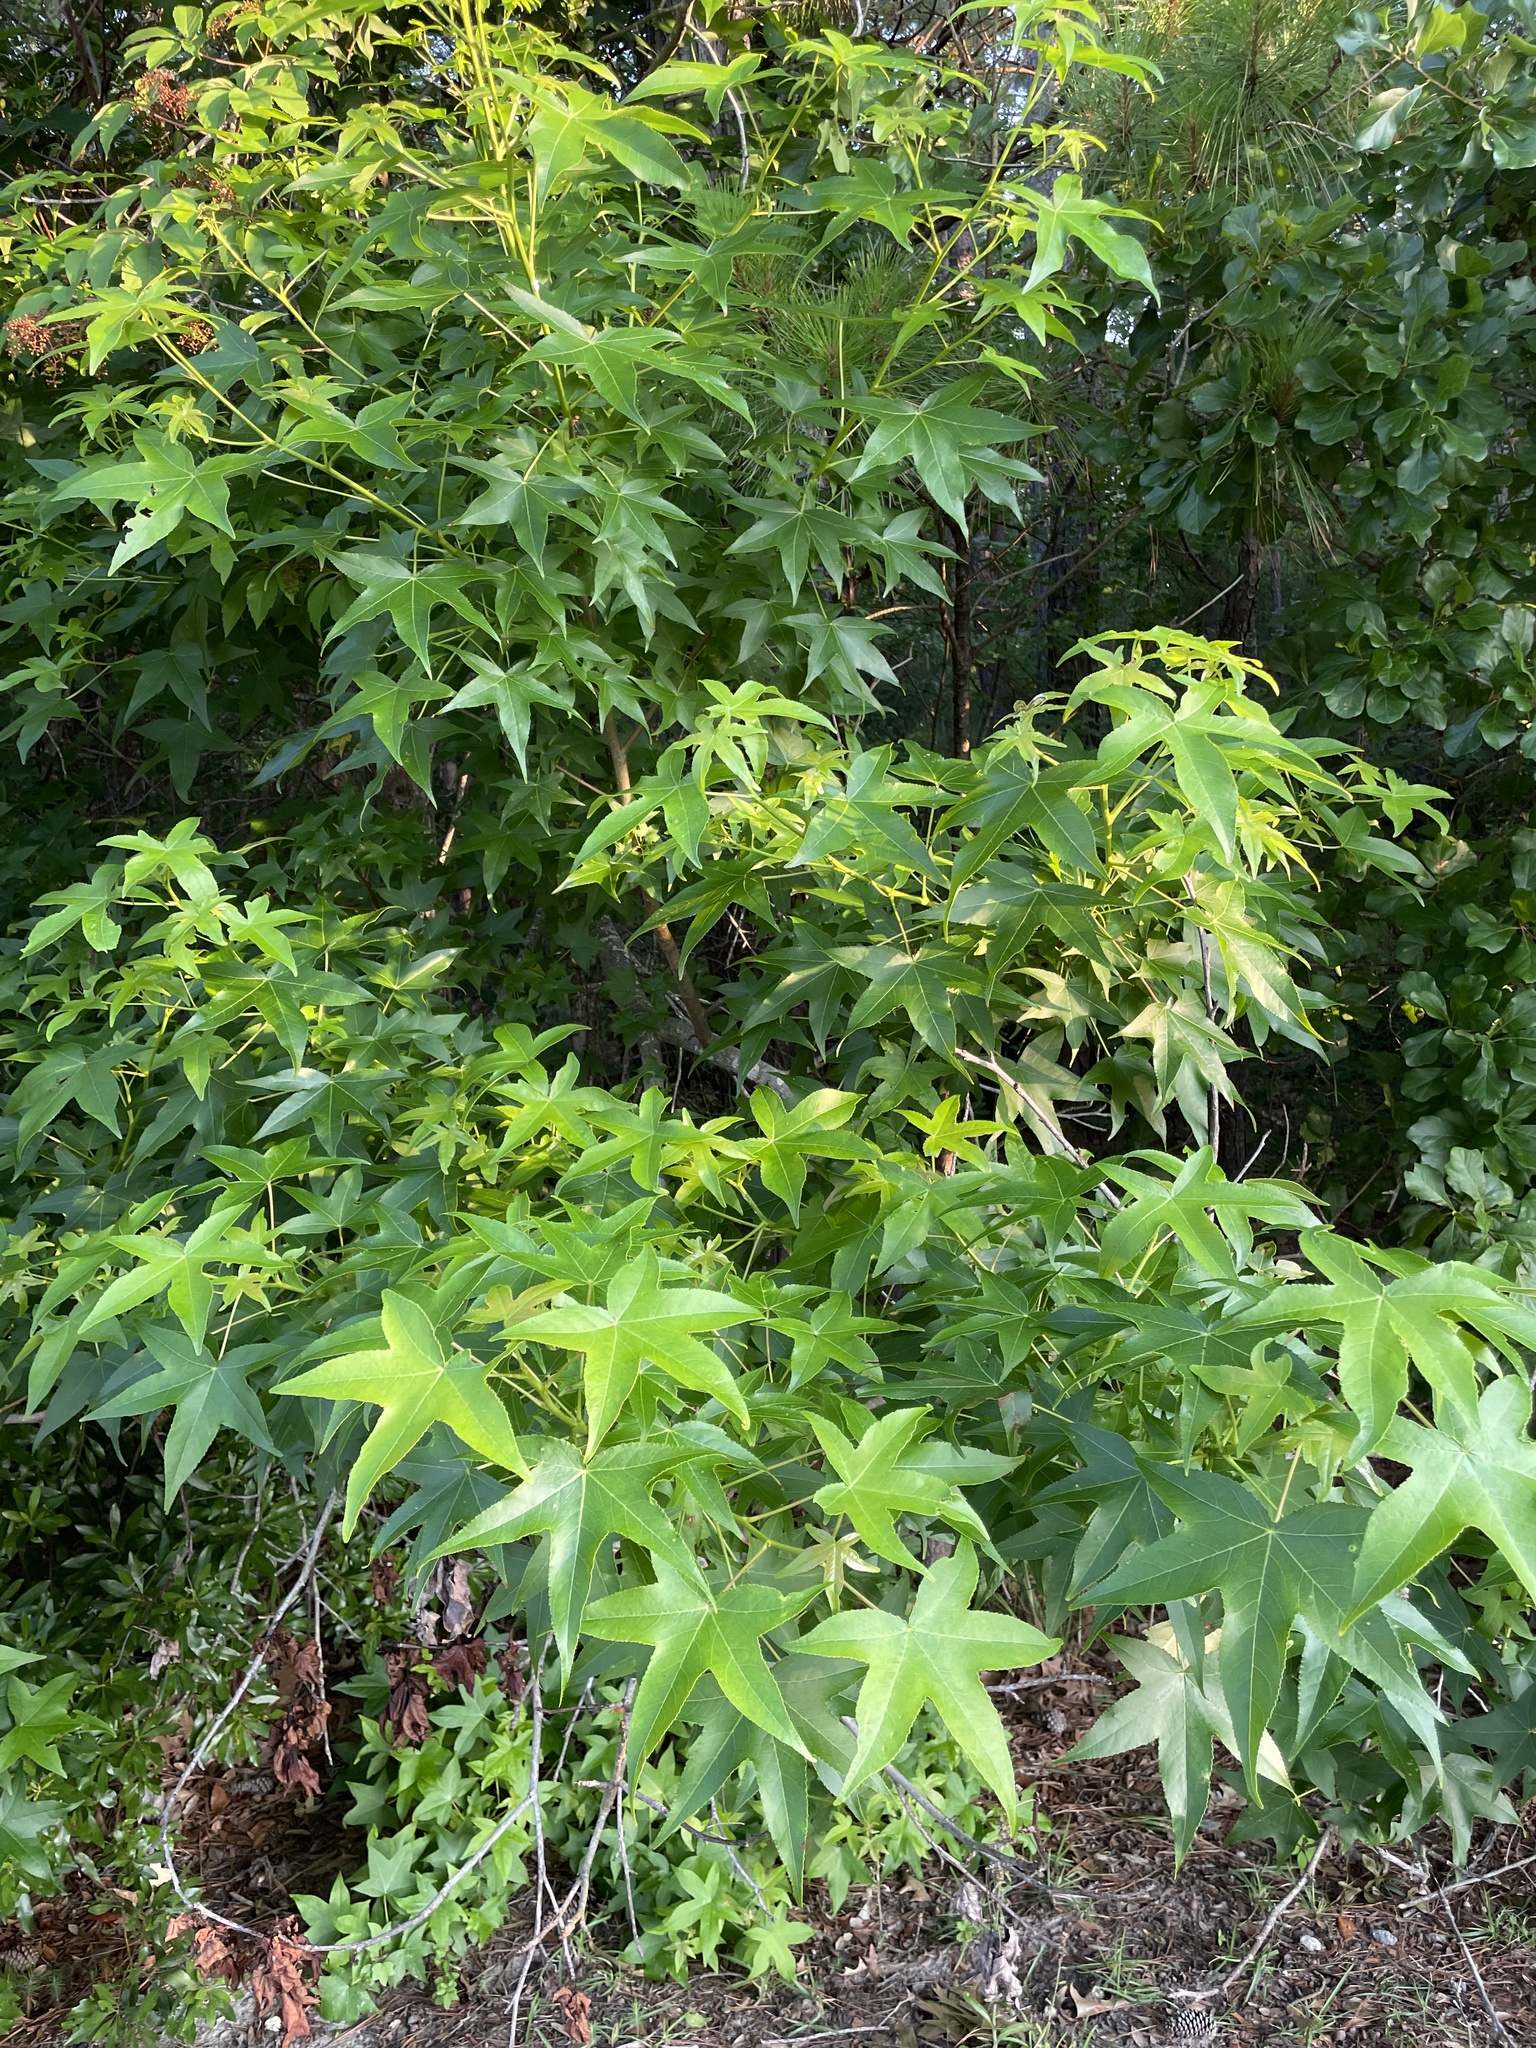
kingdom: Plantae
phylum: Tracheophyta
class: Magnoliopsida
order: Saxifragales
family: Altingiaceae
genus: Liquidambar
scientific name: Liquidambar styraciflua
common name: Sweet gum
